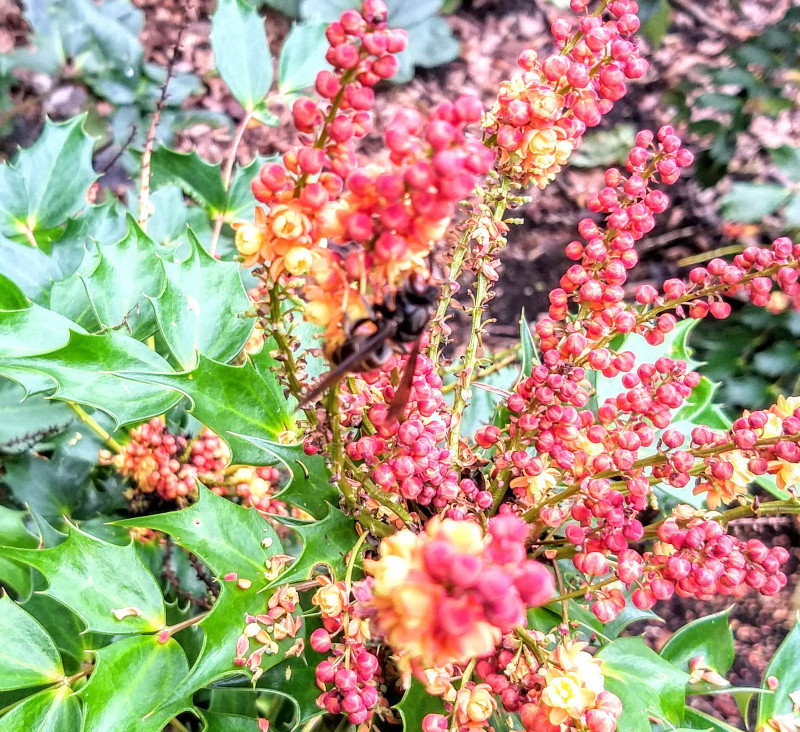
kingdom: Animalia
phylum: Arthropoda
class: Insecta
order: Hymenoptera
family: Vespidae
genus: Vespa
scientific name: Vespa velutina
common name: Asian hornet
